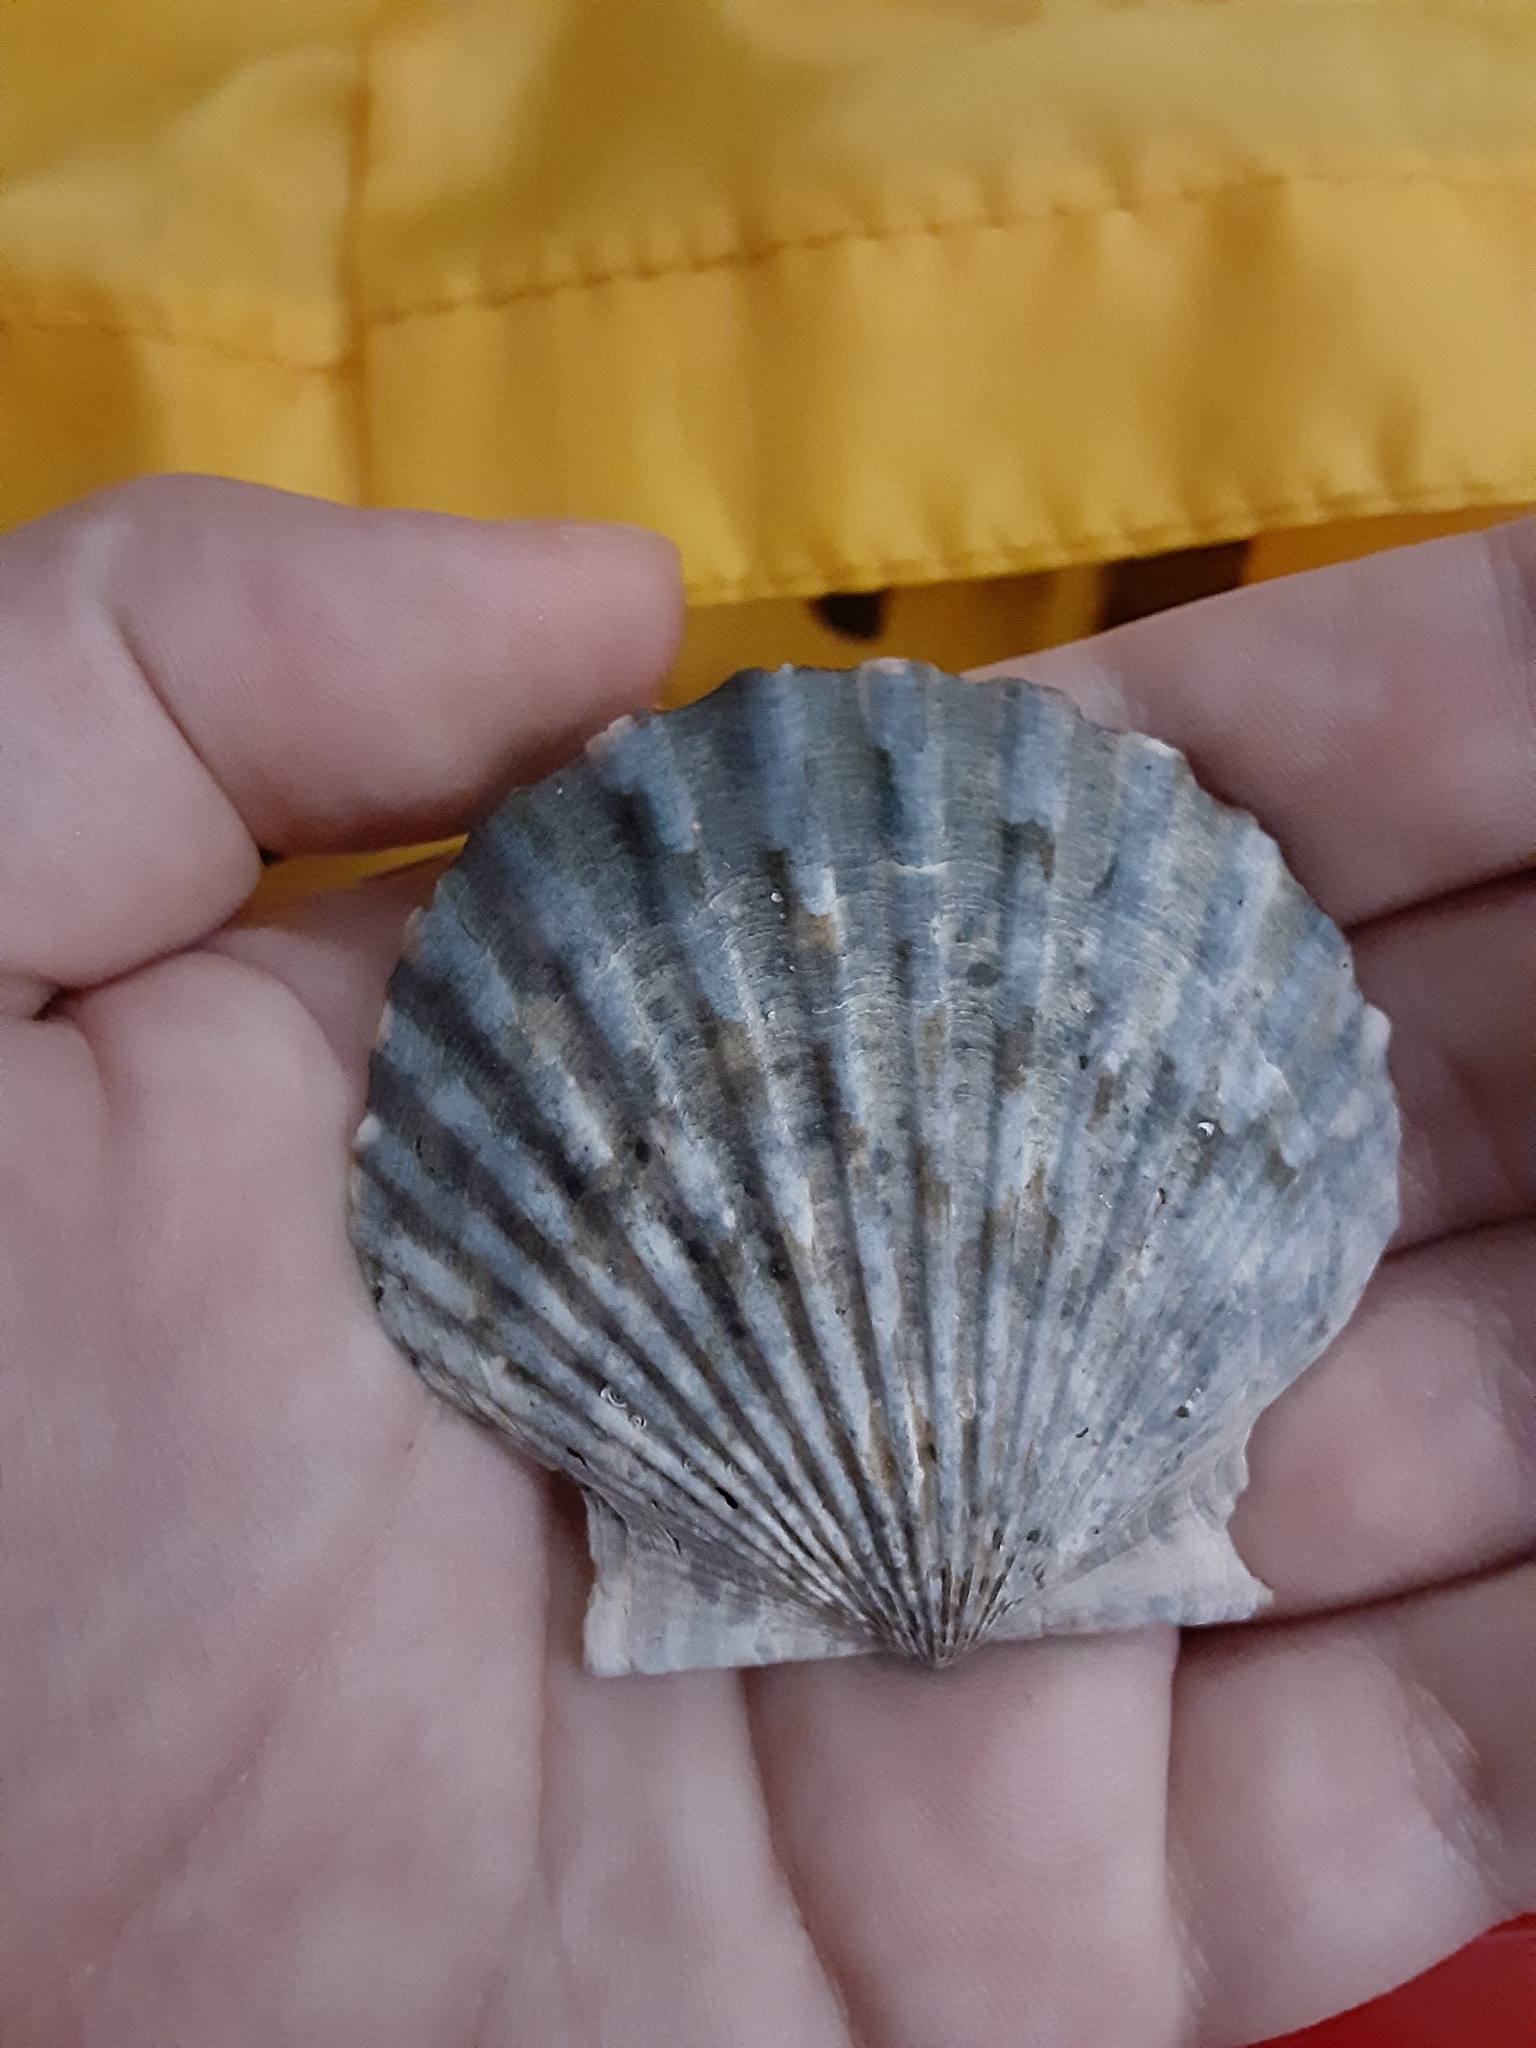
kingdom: Animalia
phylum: Mollusca
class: Bivalvia
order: Pectinida
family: Pectinidae
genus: Argopecten
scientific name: Argopecten irradians
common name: Atlantic bay scallop
